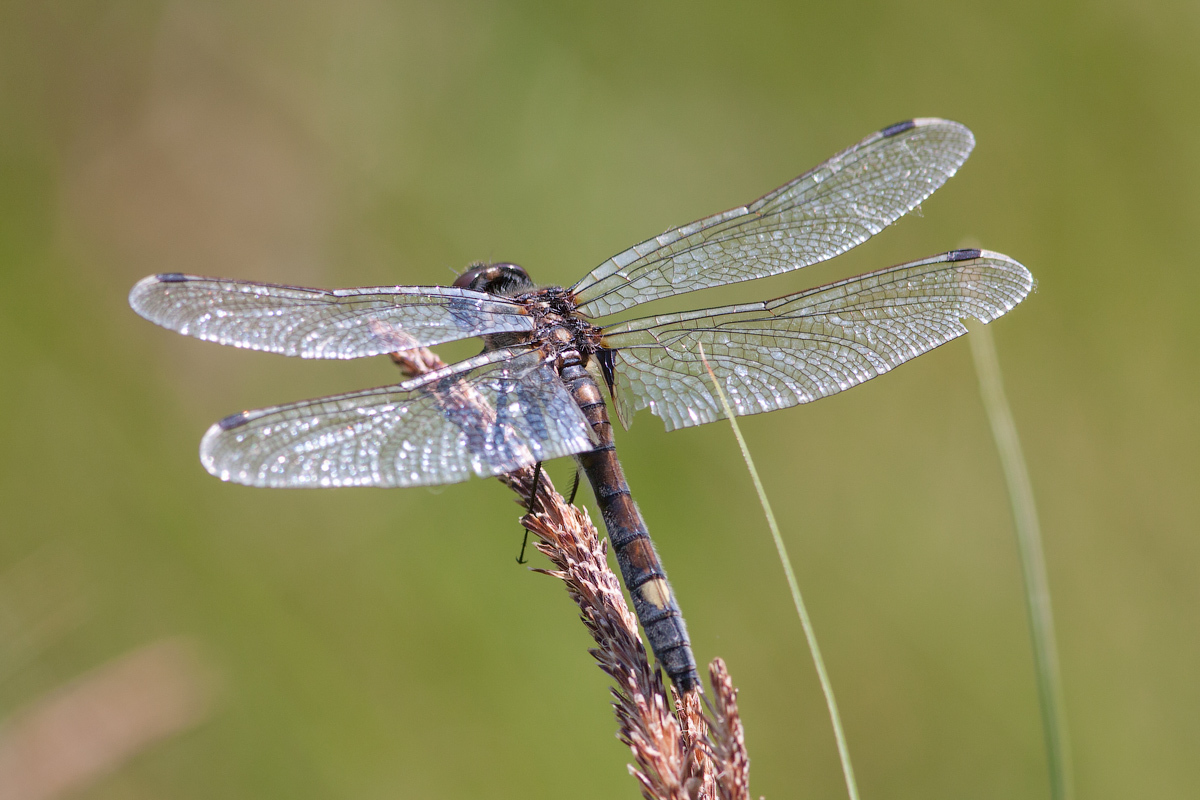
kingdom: Animalia
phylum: Arthropoda
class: Insecta
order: Odonata
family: Libellulidae
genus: Leucorrhinia
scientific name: Leucorrhinia pectoralis
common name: Yellow-spotted whiteface
